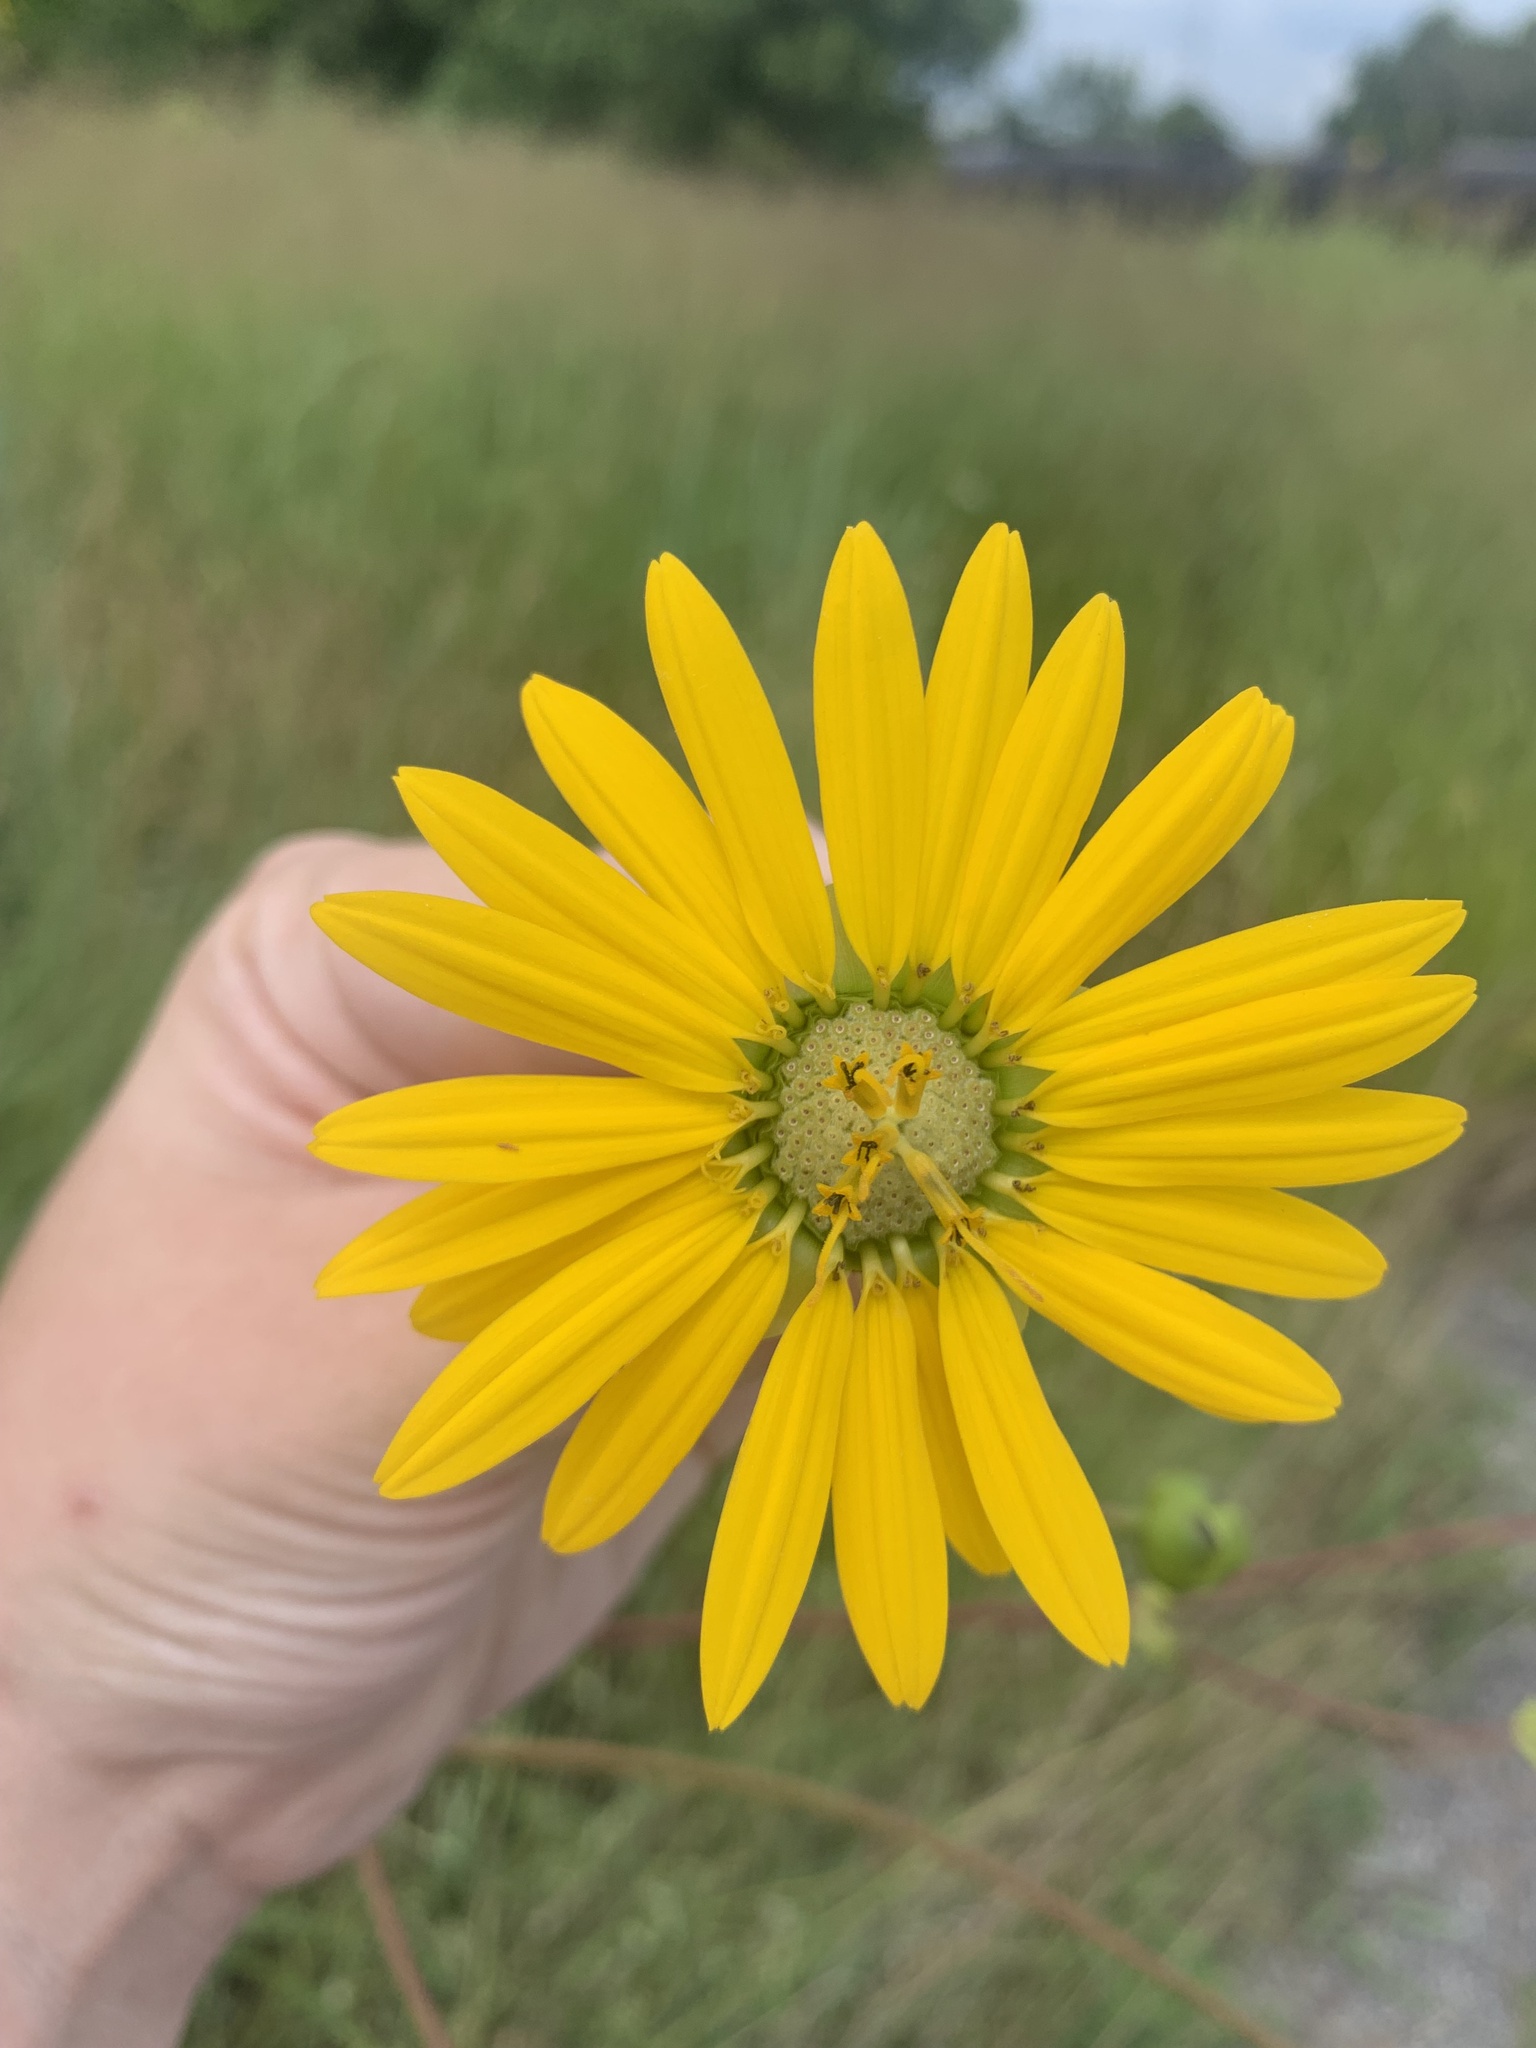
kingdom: Plantae
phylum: Tracheophyta
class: Magnoliopsida
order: Asterales
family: Asteraceae
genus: Silphium
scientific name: Silphium pinnatifidum
